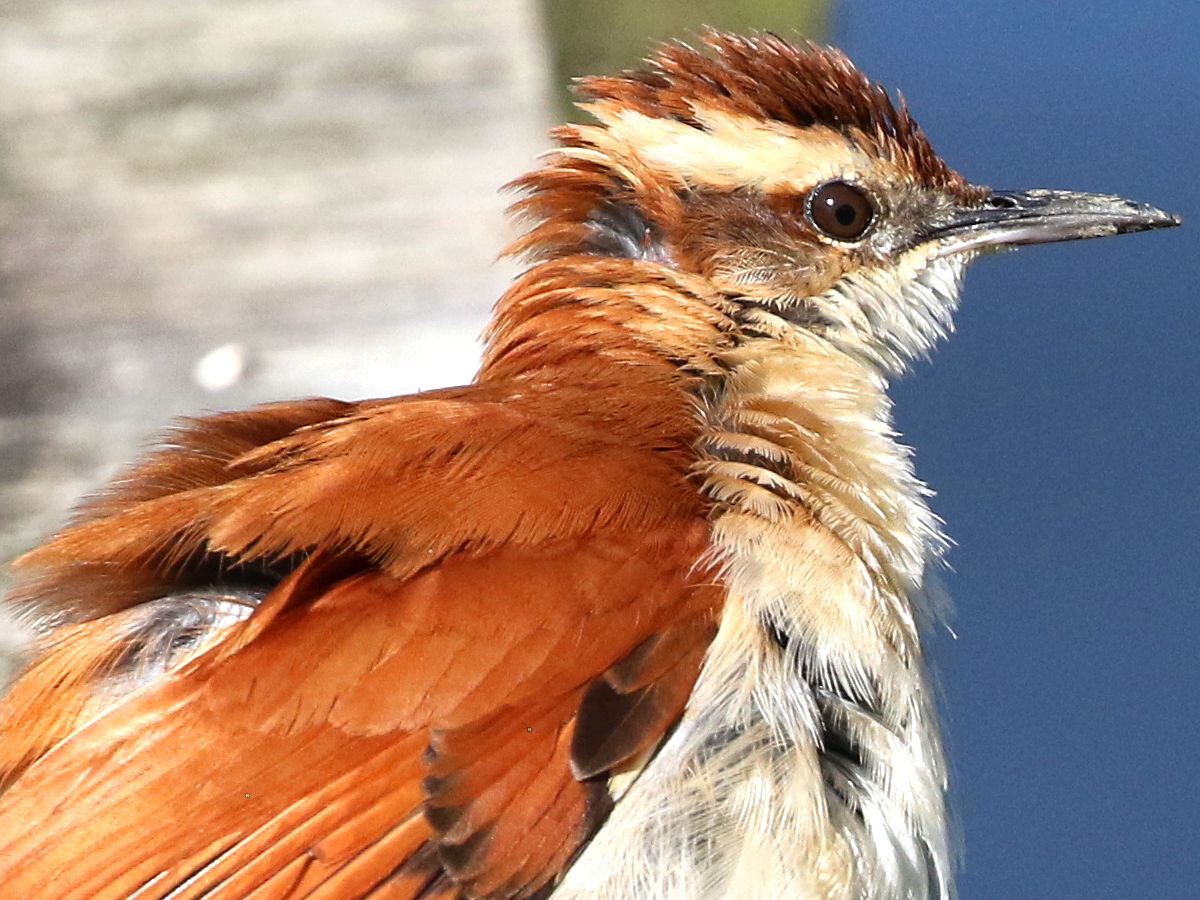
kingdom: Animalia
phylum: Chordata
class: Aves
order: Passeriformes
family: Furnariidae
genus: Furnarius
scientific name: Furnarius figulus
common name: Band-tailed hornero
